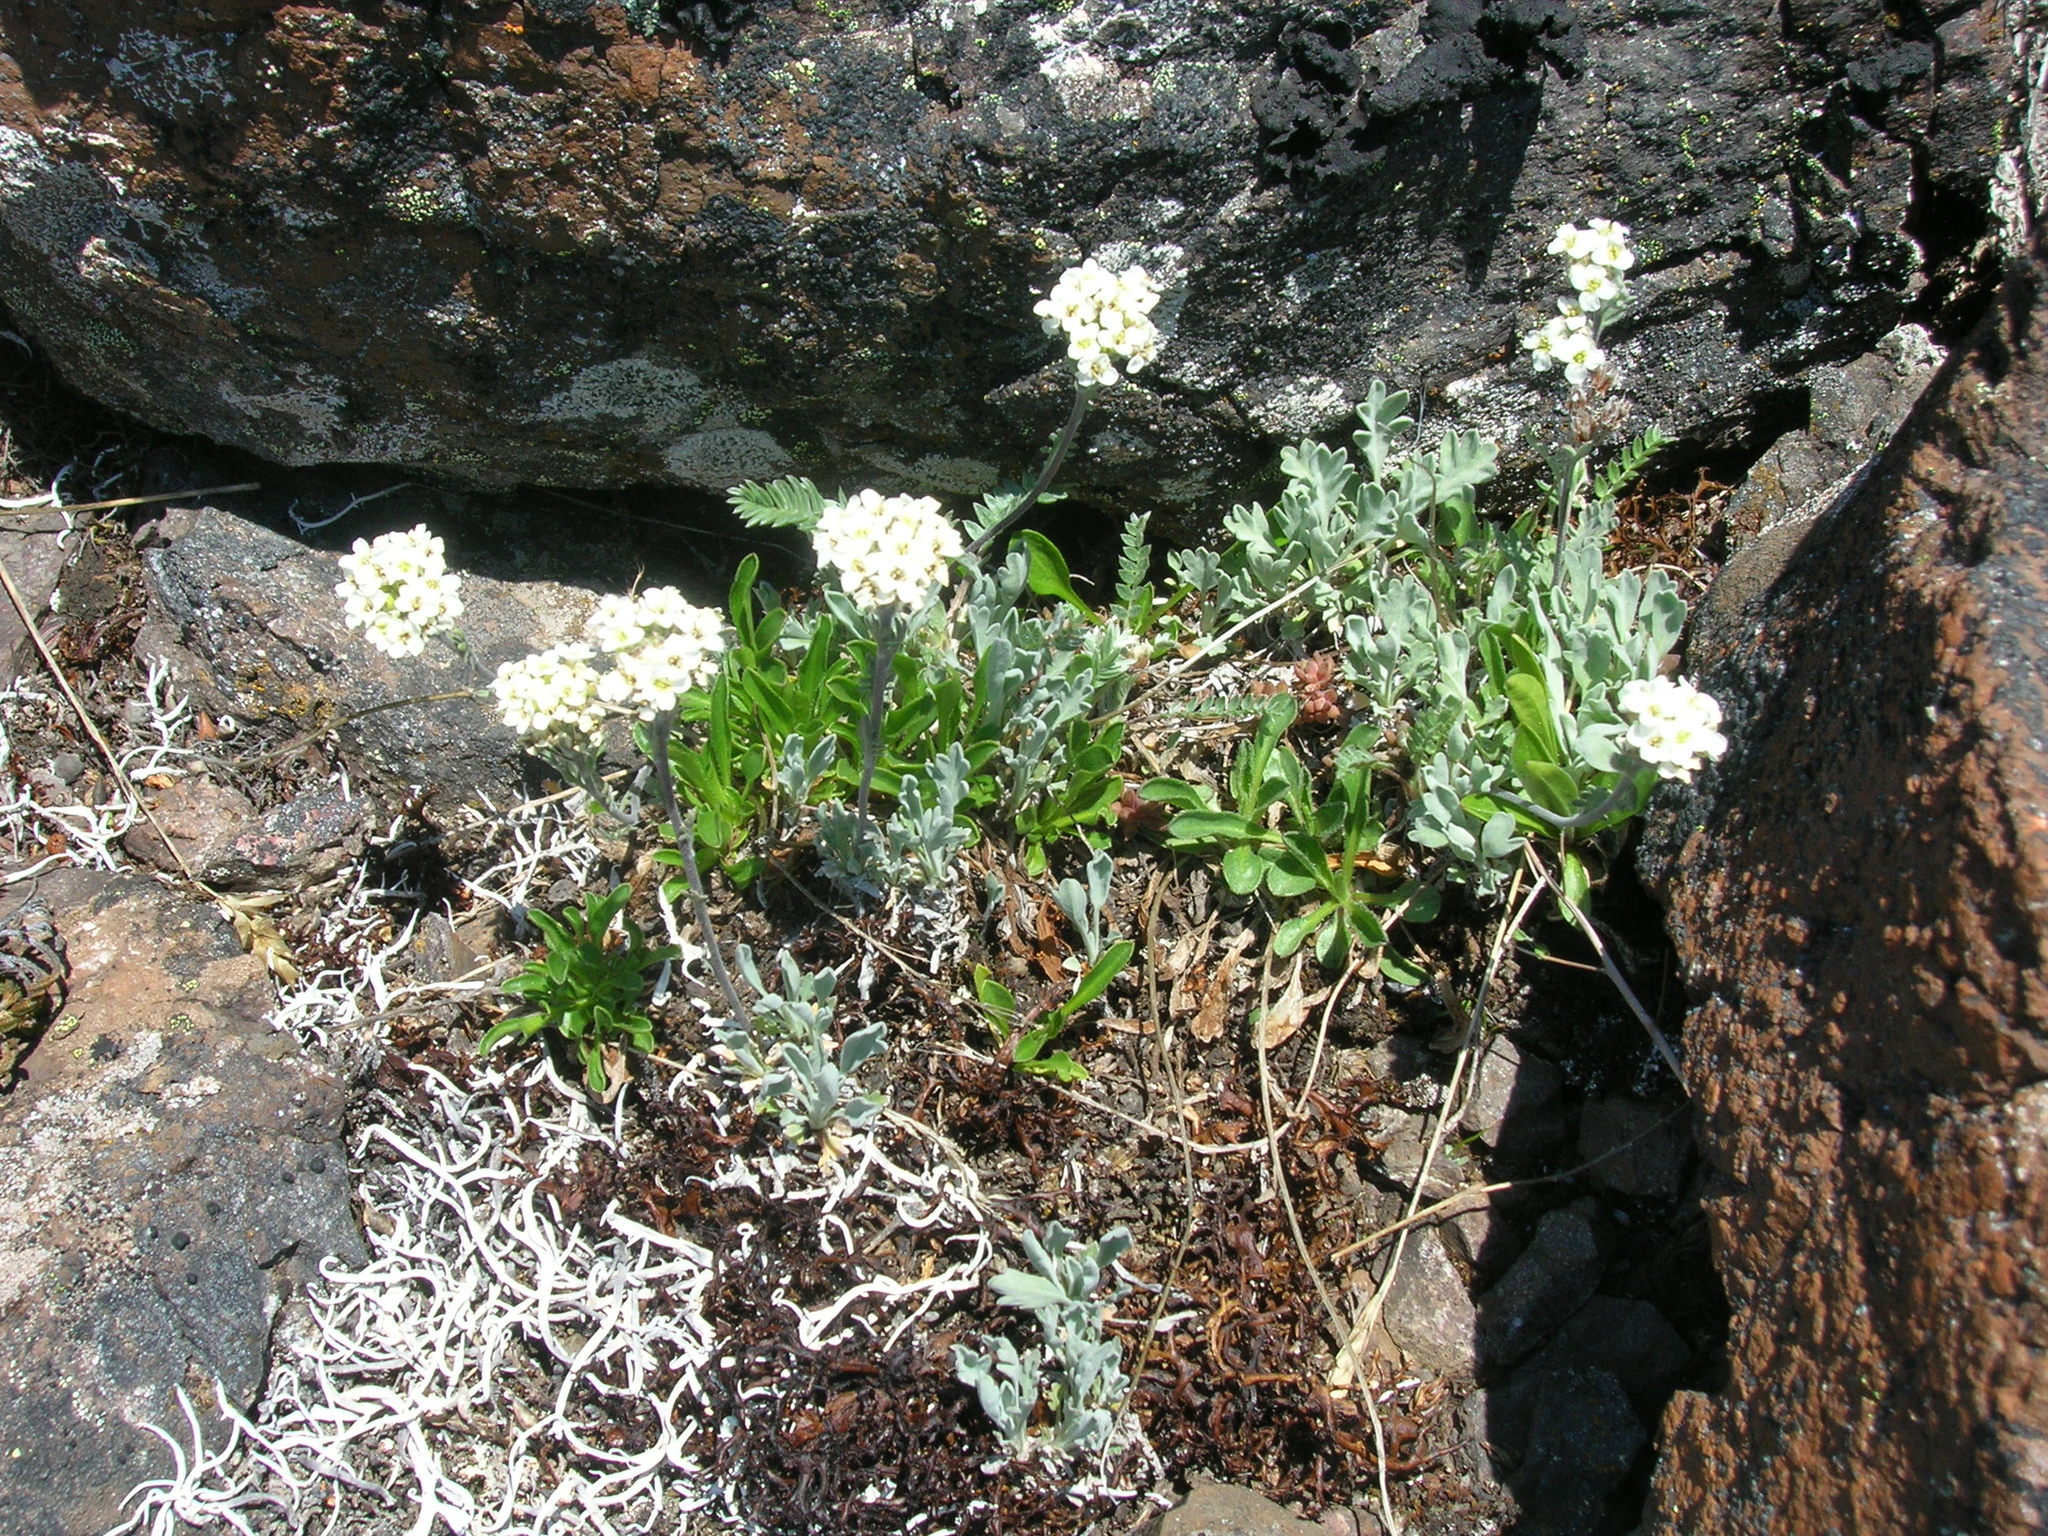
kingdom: Plantae
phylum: Tracheophyta
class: Magnoliopsida
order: Brassicales
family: Brassicaceae
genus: Smelowskia
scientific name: Smelowskia americana
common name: American false candytuft
